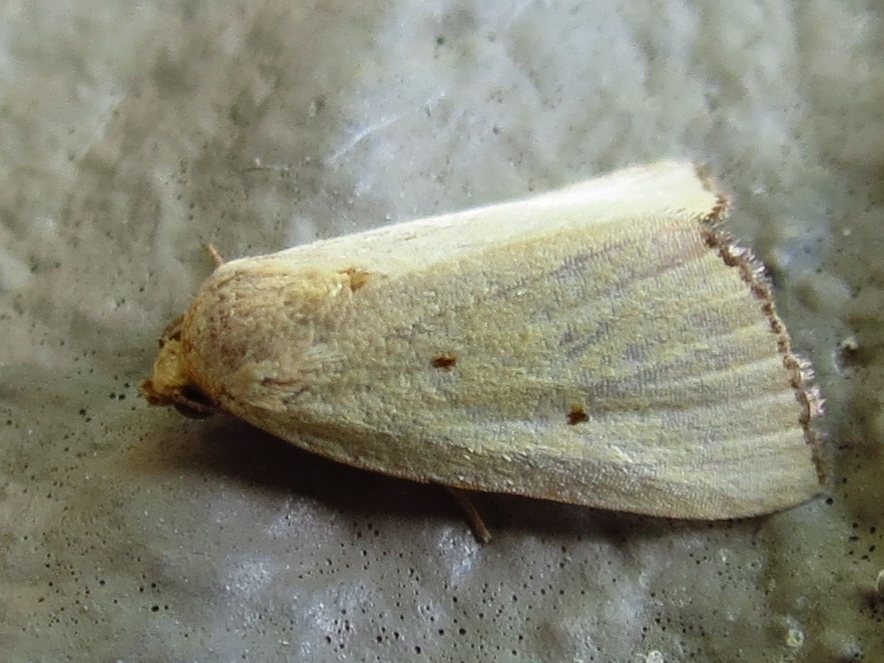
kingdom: Animalia
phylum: Arthropoda
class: Insecta
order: Lepidoptera
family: Noctuidae
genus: Marimatha
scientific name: Marimatha nigrofimbria
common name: Black-bordered lemon moth
